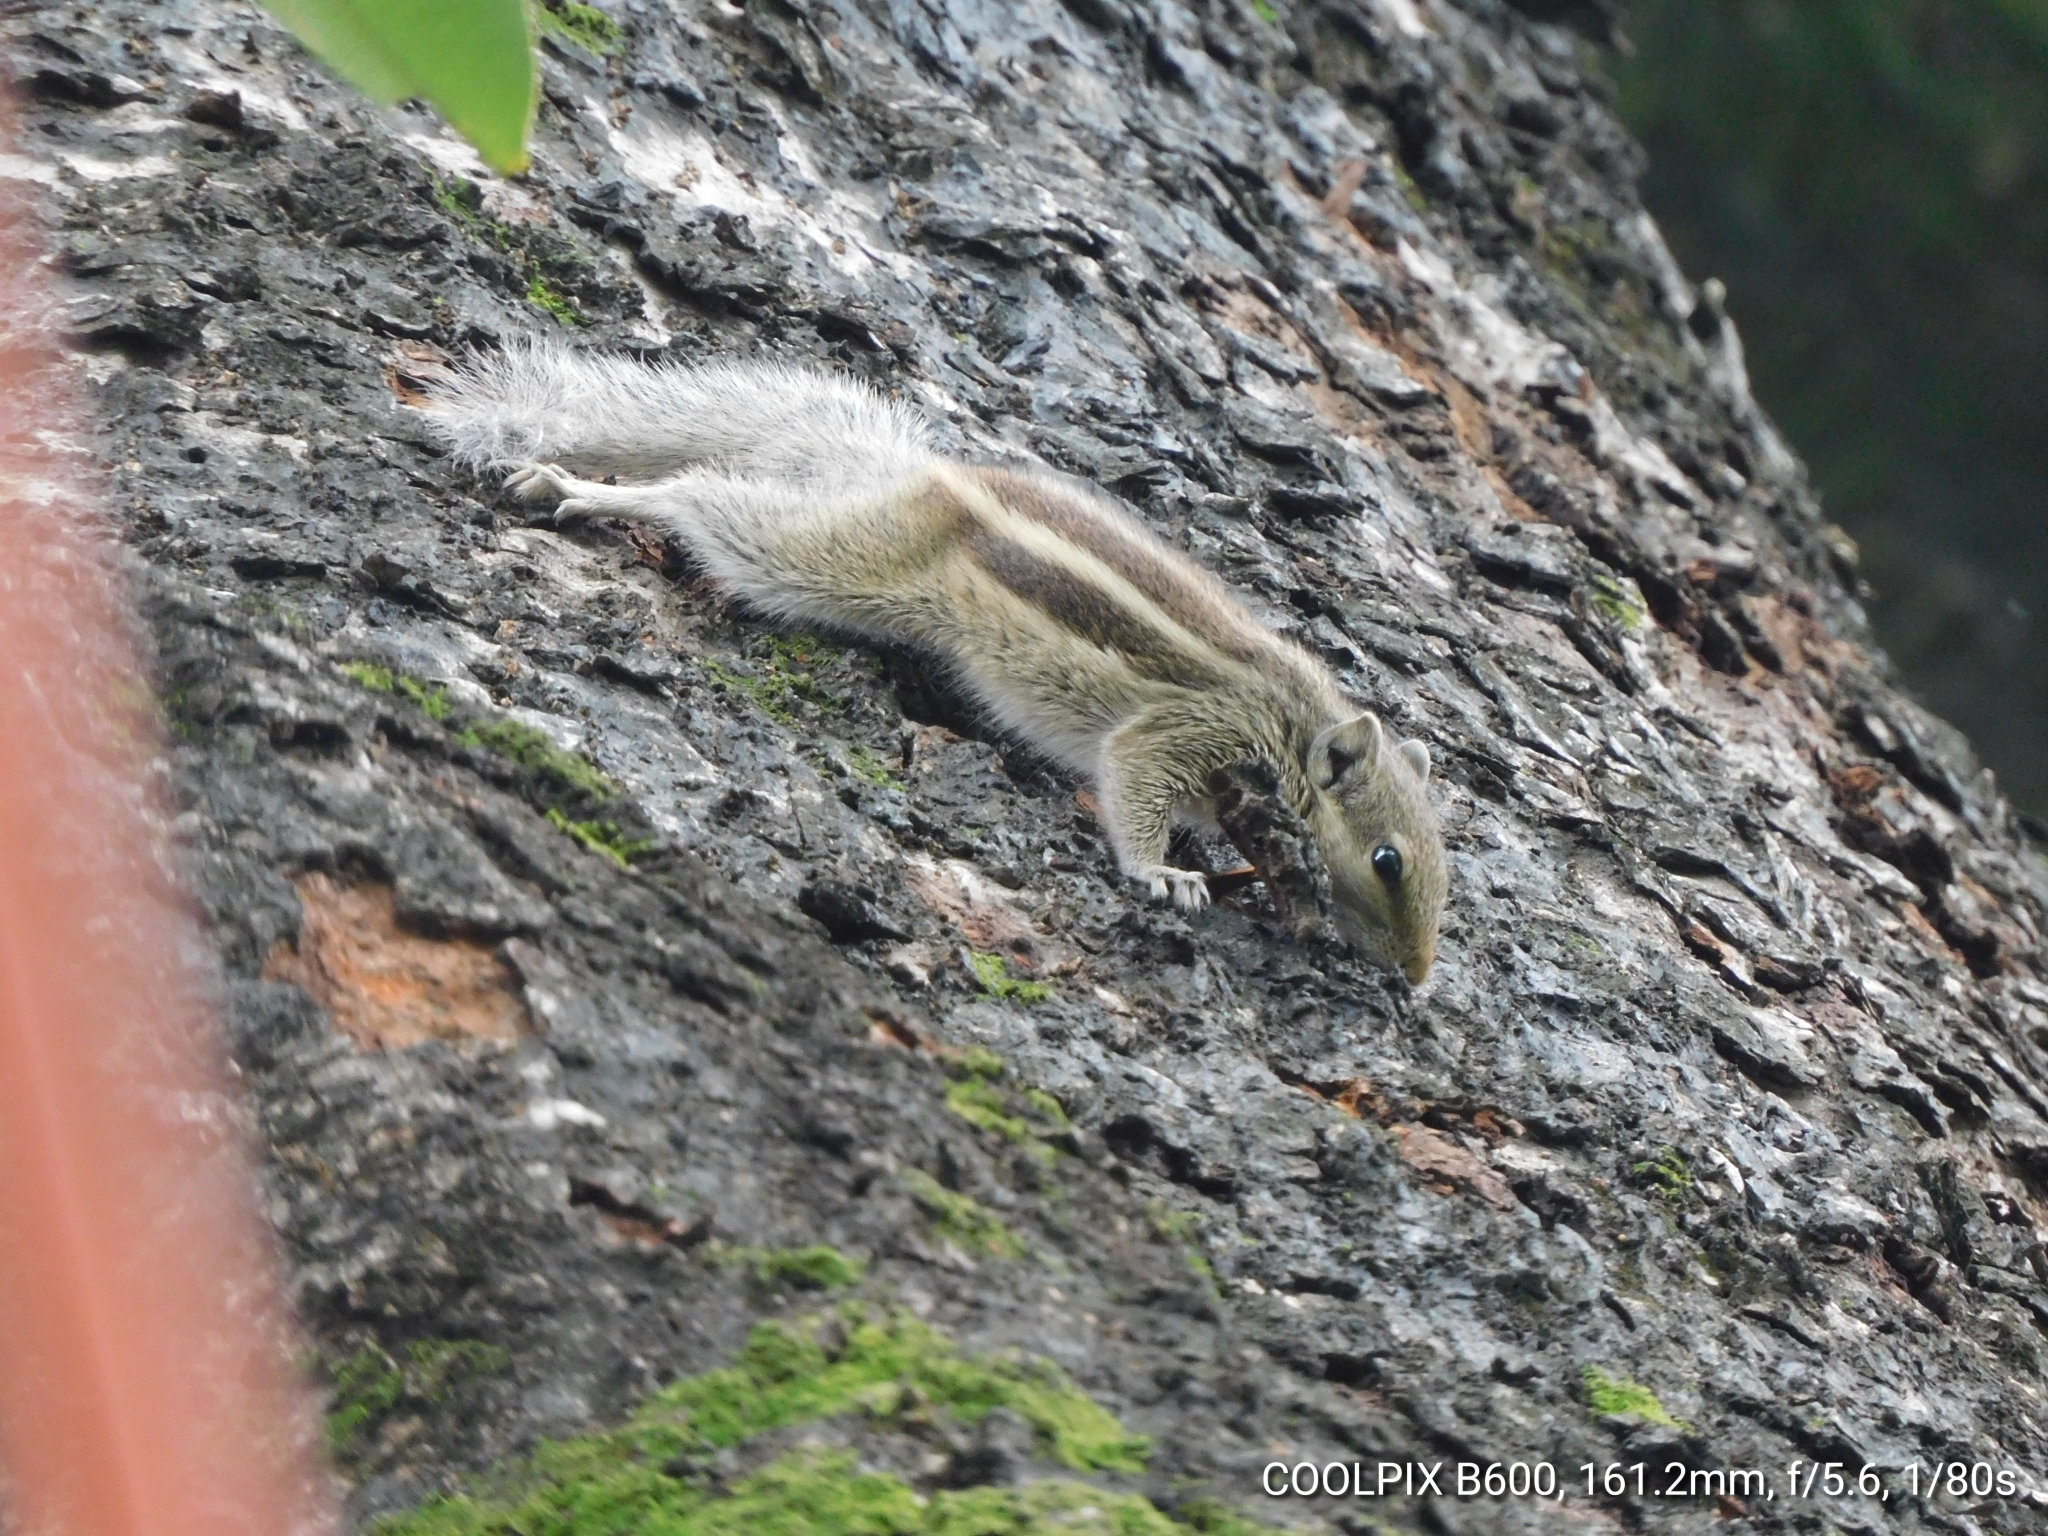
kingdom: Animalia
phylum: Chordata
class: Mammalia
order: Rodentia
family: Sciuridae
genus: Funambulus
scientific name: Funambulus pennantii
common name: Northern palm squirrel
